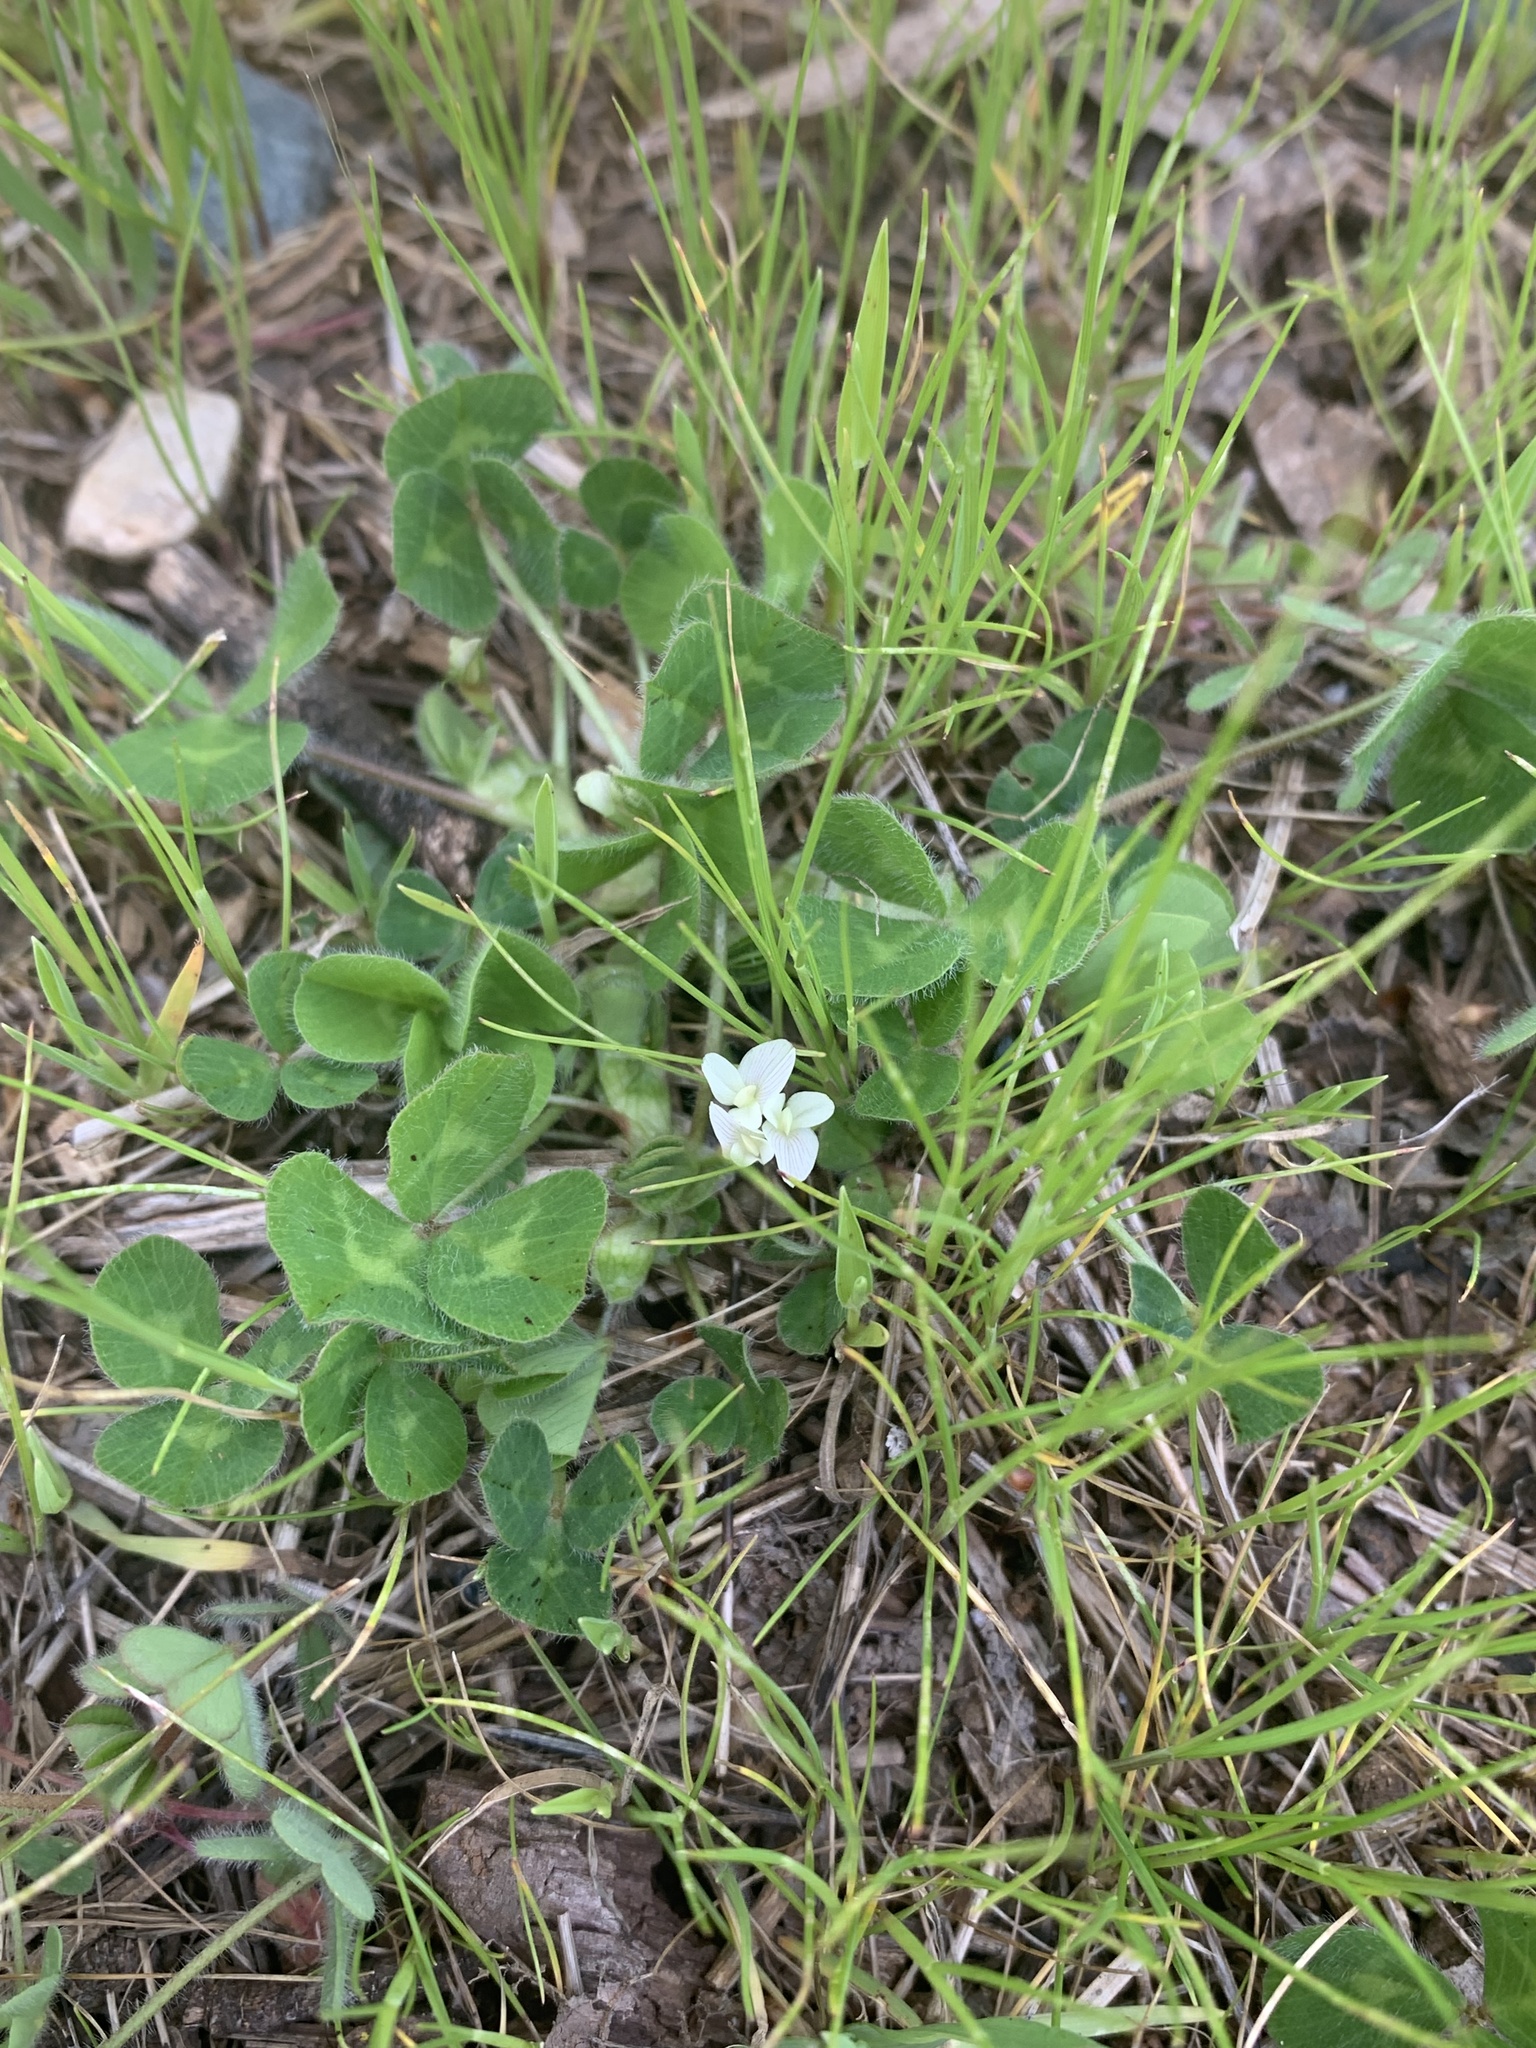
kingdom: Plantae
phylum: Tracheophyta
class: Magnoliopsida
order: Fabales
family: Fabaceae
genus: Trifolium
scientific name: Trifolium subterraneum
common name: Subterranean clover
